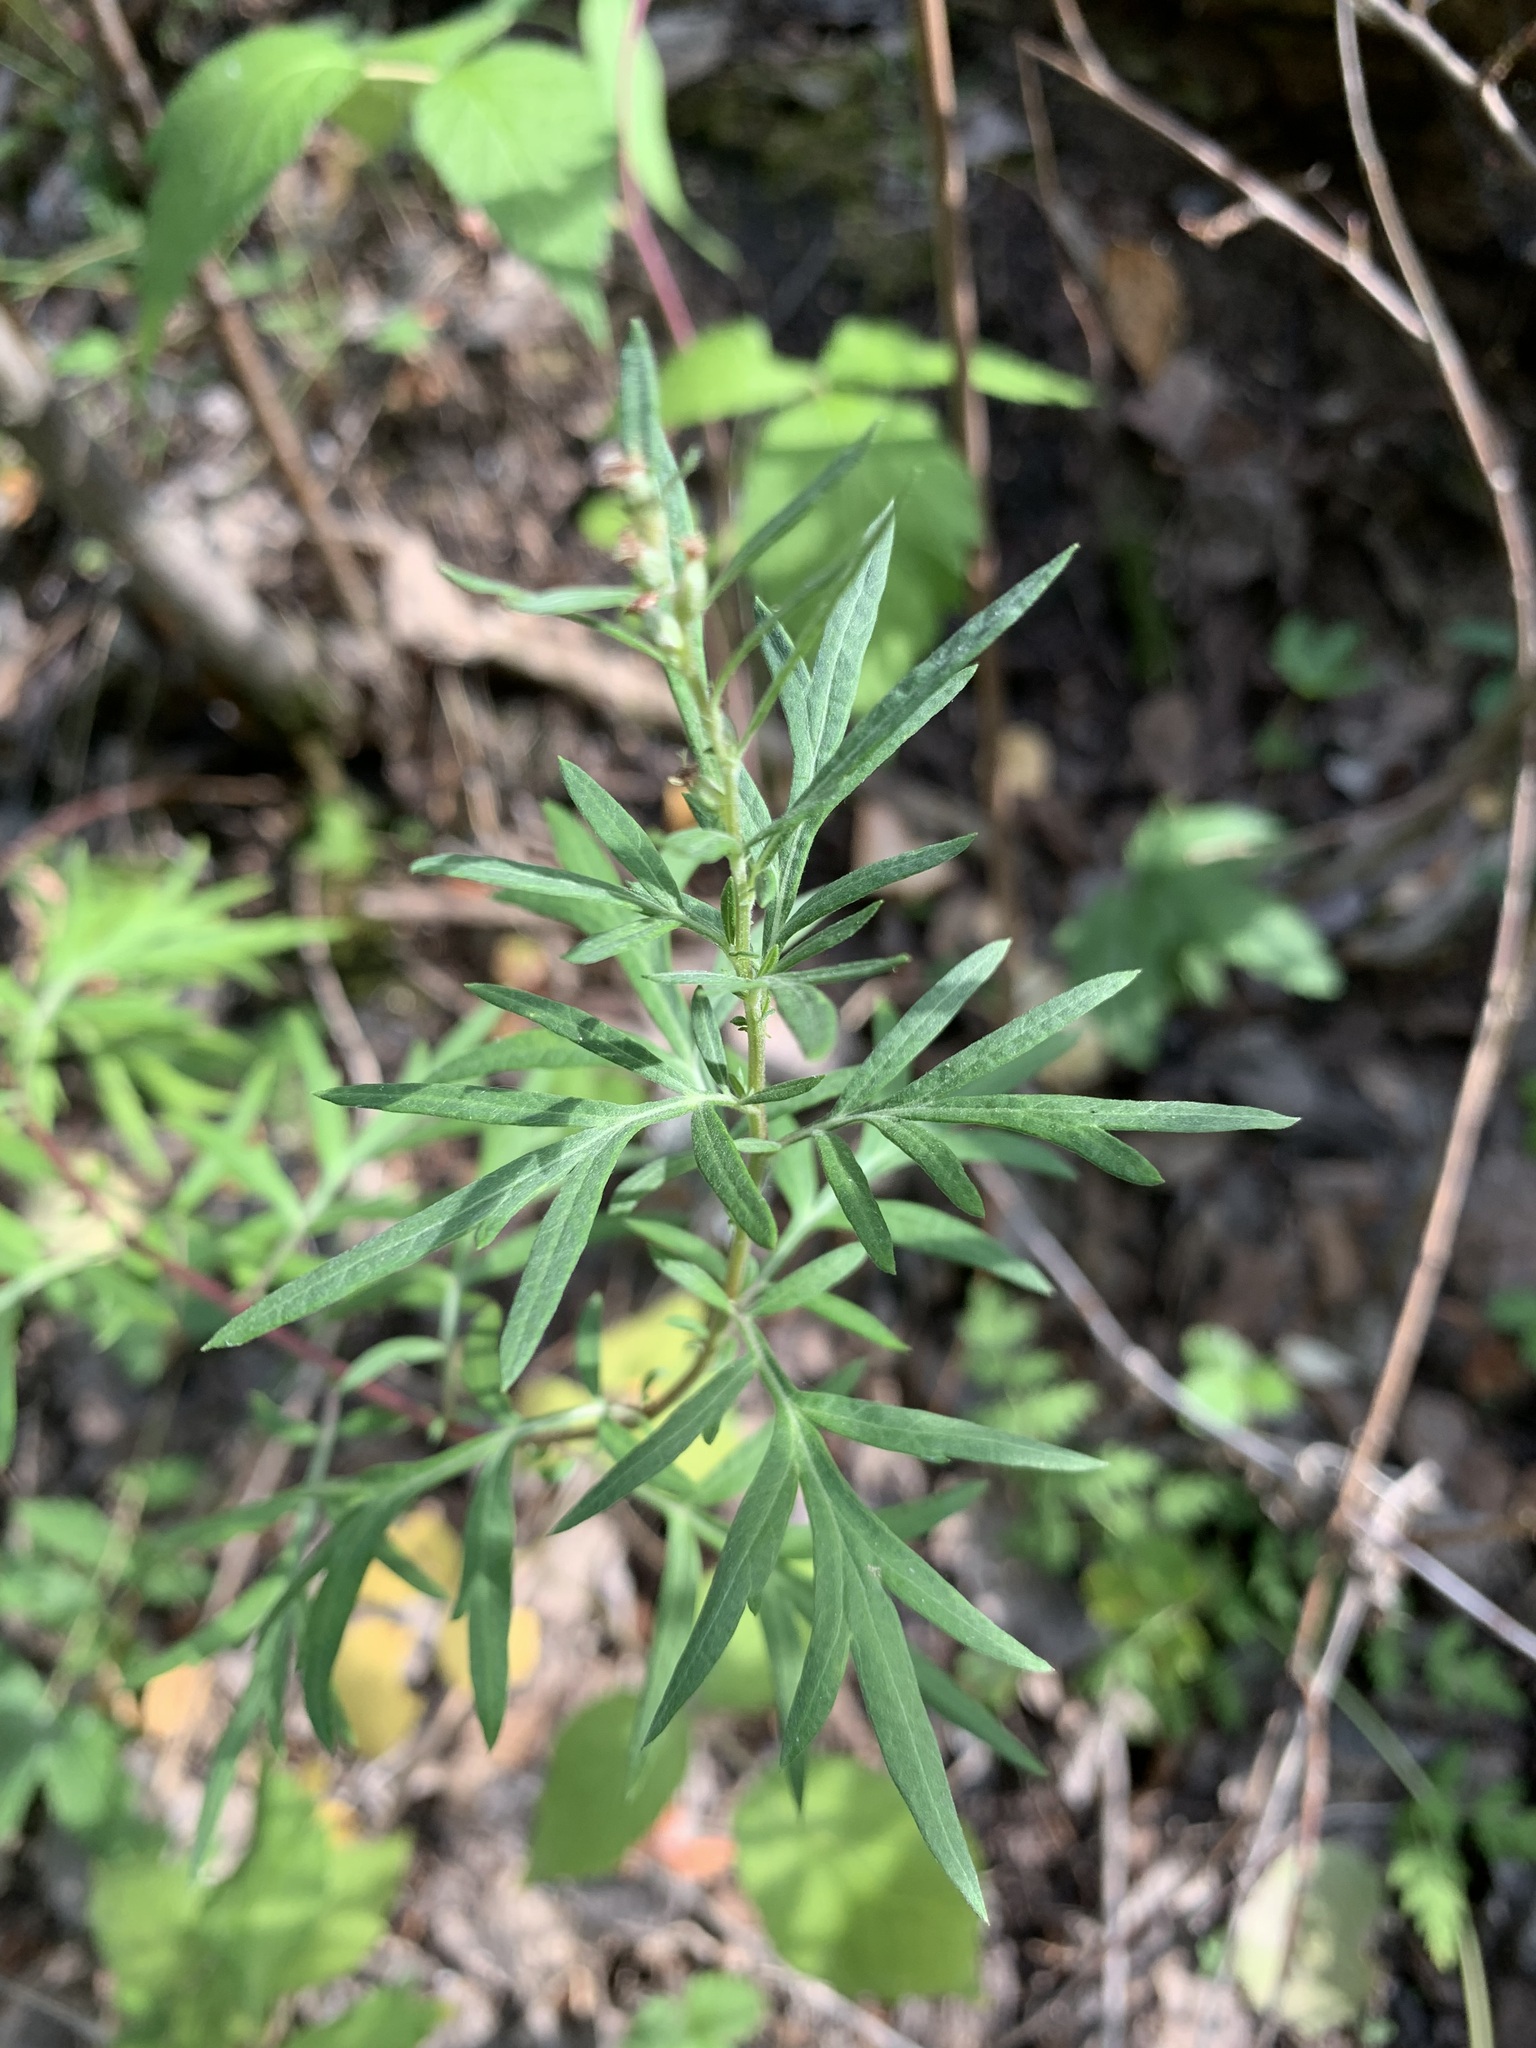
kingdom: Plantae
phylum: Tracheophyta
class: Magnoliopsida
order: Asterales
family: Asteraceae
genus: Artemisia
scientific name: Artemisia vulgaris
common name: Mugwort
